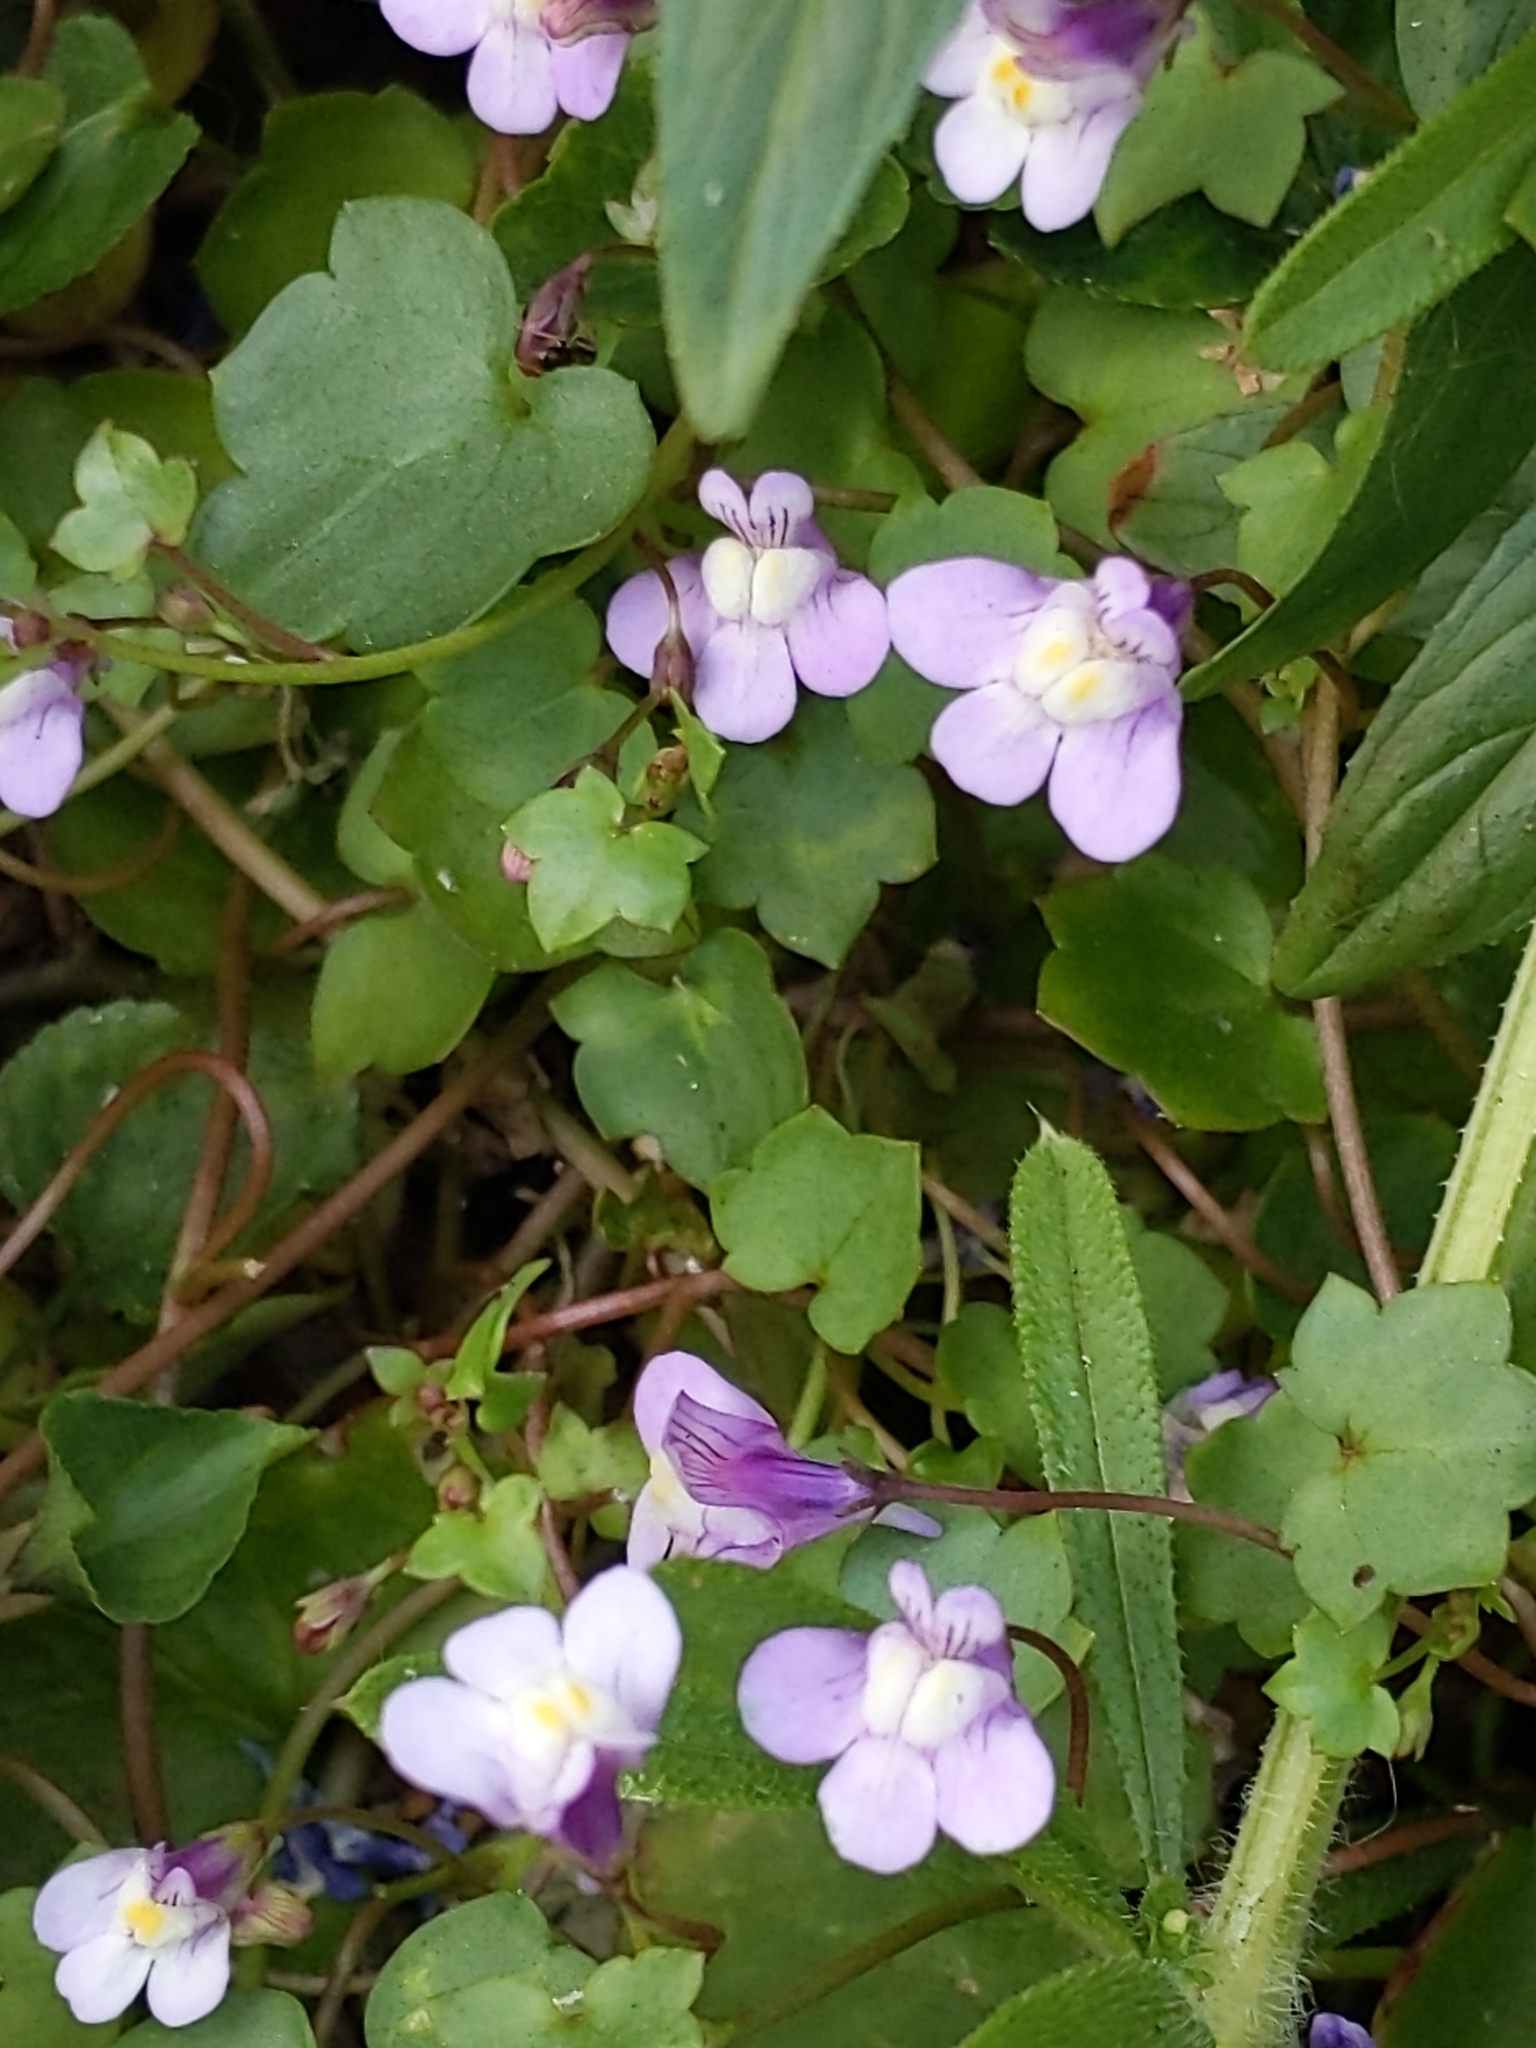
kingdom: Plantae
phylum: Tracheophyta
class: Magnoliopsida
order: Lamiales
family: Plantaginaceae
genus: Cymbalaria
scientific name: Cymbalaria muralis
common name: Ivy-leaved toadflax
